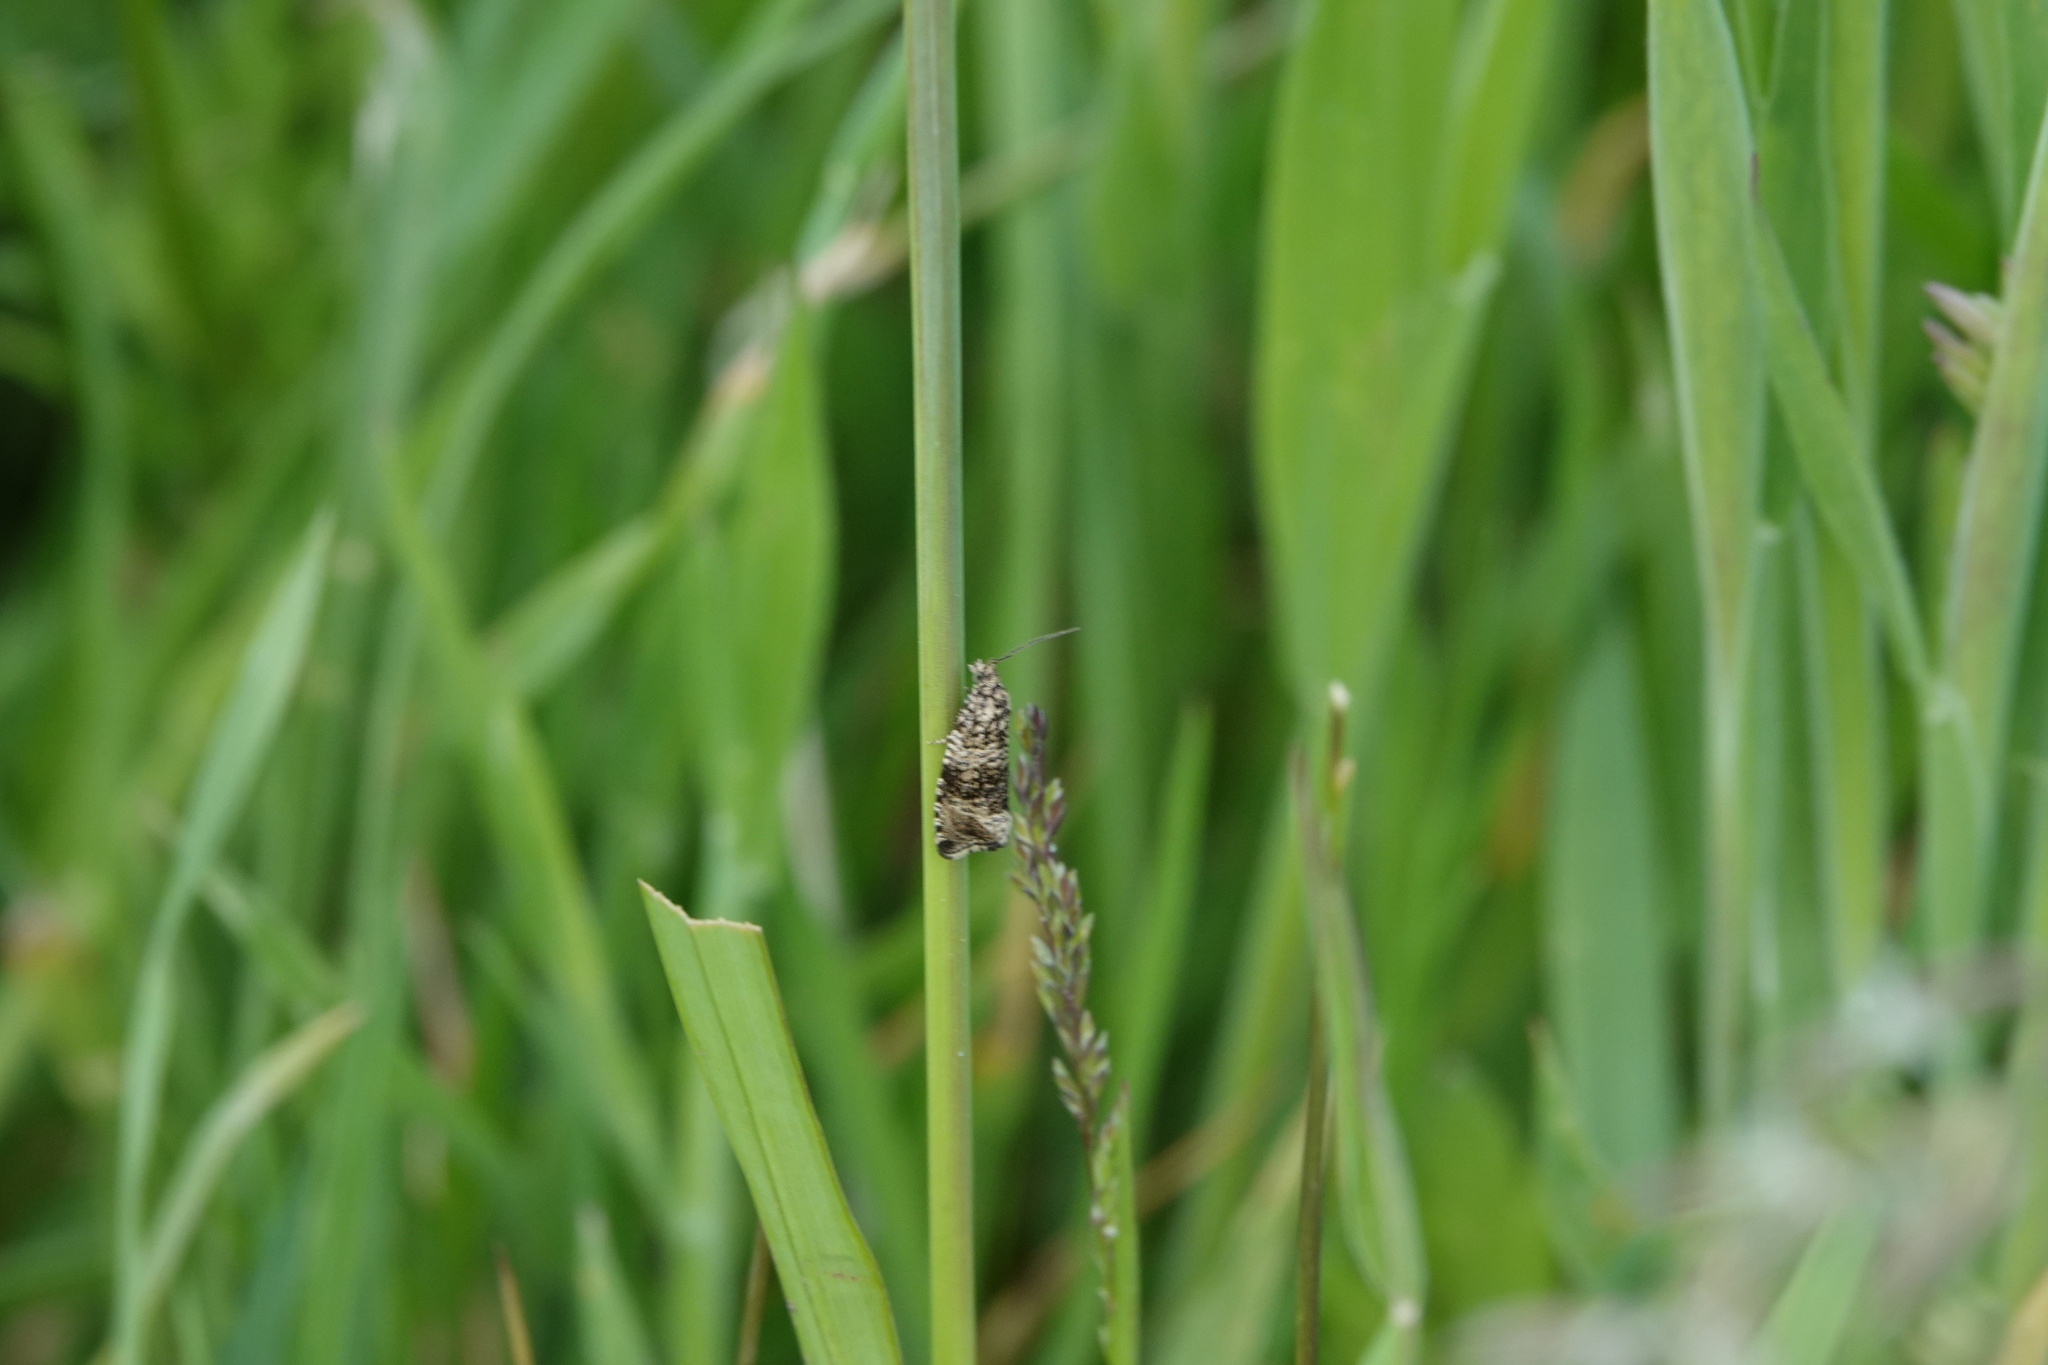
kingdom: Animalia
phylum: Arthropoda
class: Insecta
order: Lepidoptera
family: Tortricidae
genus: Syricoris
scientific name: Syricoris lacunana
